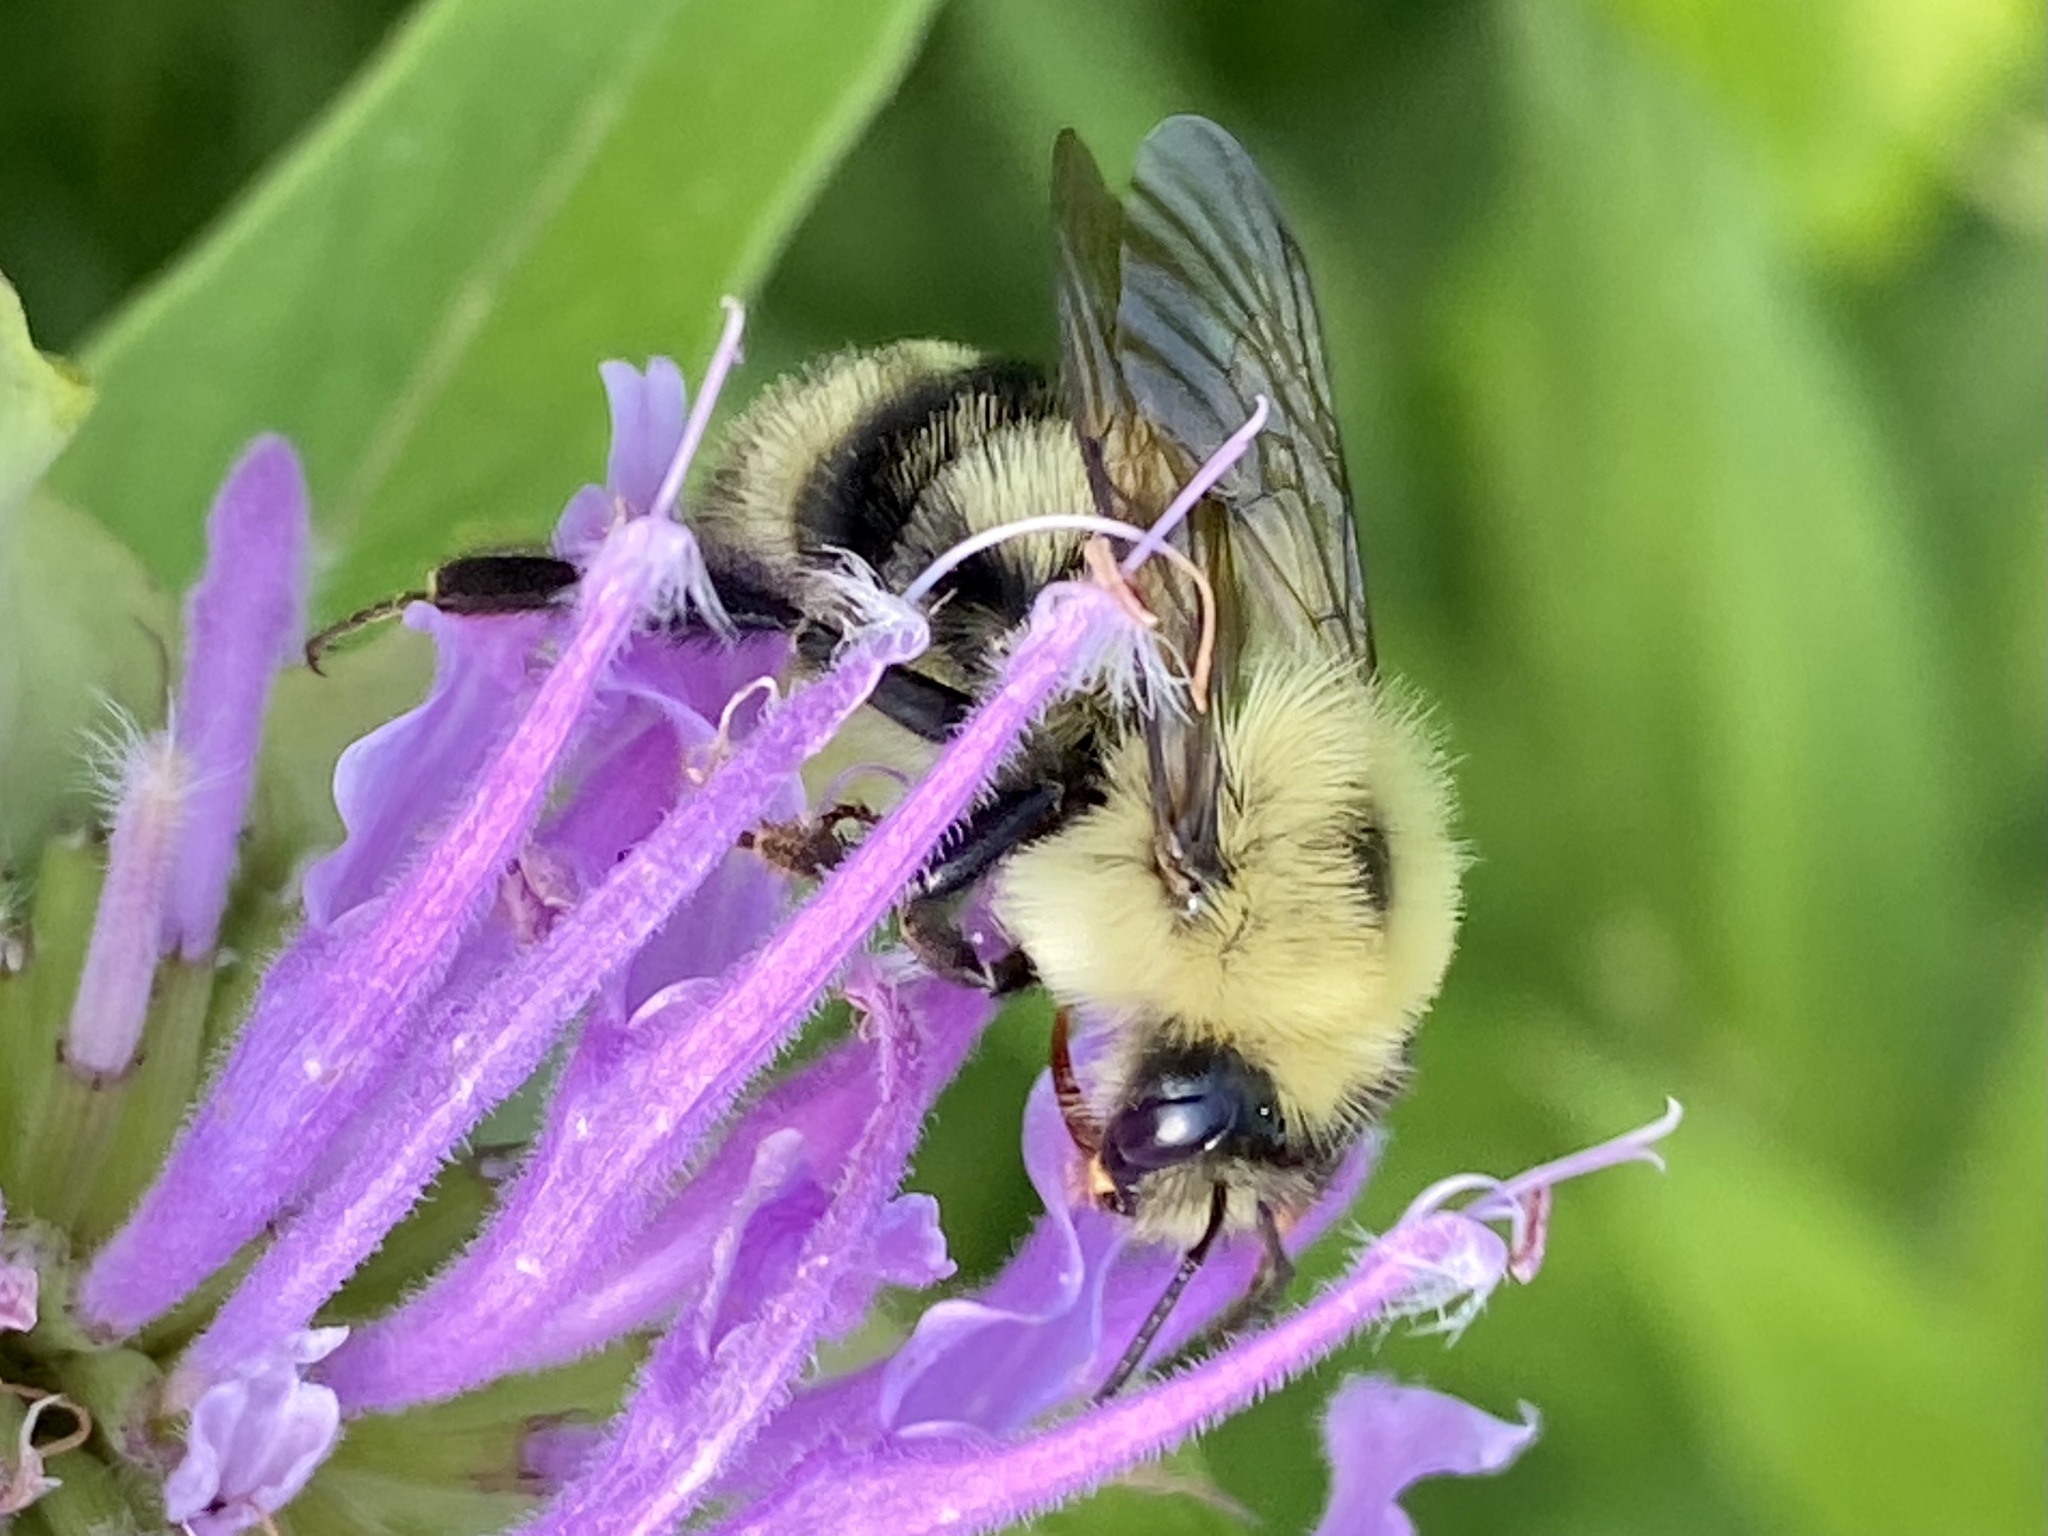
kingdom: Animalia
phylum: Arthropoda
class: Insecta
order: Hymenoptera
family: Apidae
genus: Bombus
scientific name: Bombus bimaculatus
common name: Two-spotted bumble bee
